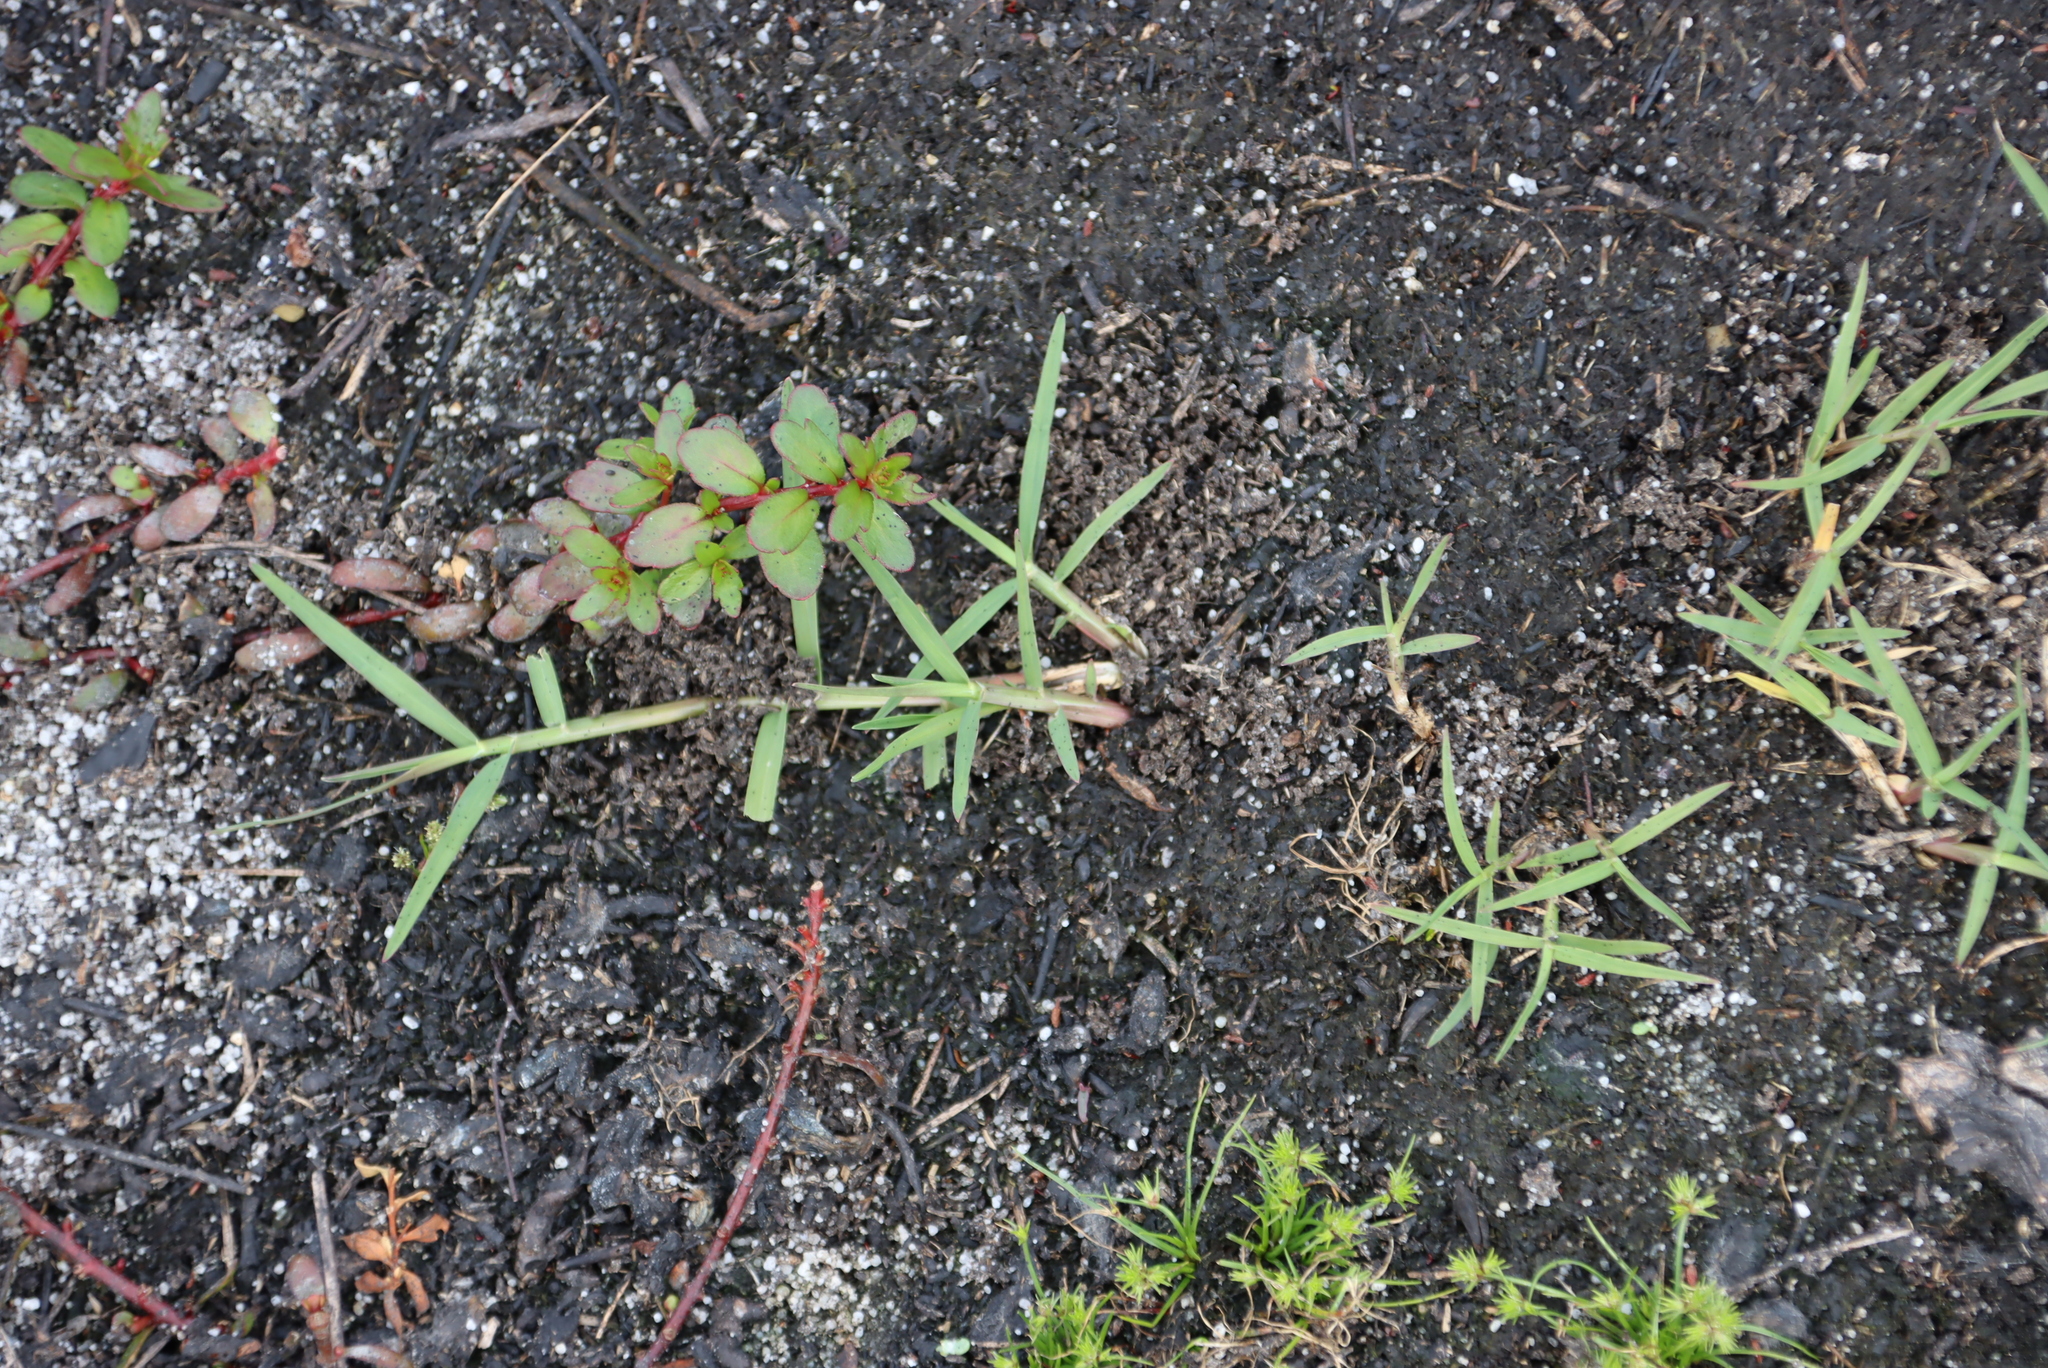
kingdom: Plantae
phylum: Tracheophyta
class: Liliopsida
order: Poales
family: Poaceae
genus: Cynodon
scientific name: Cynodon dactylon
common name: Bermuda grass
